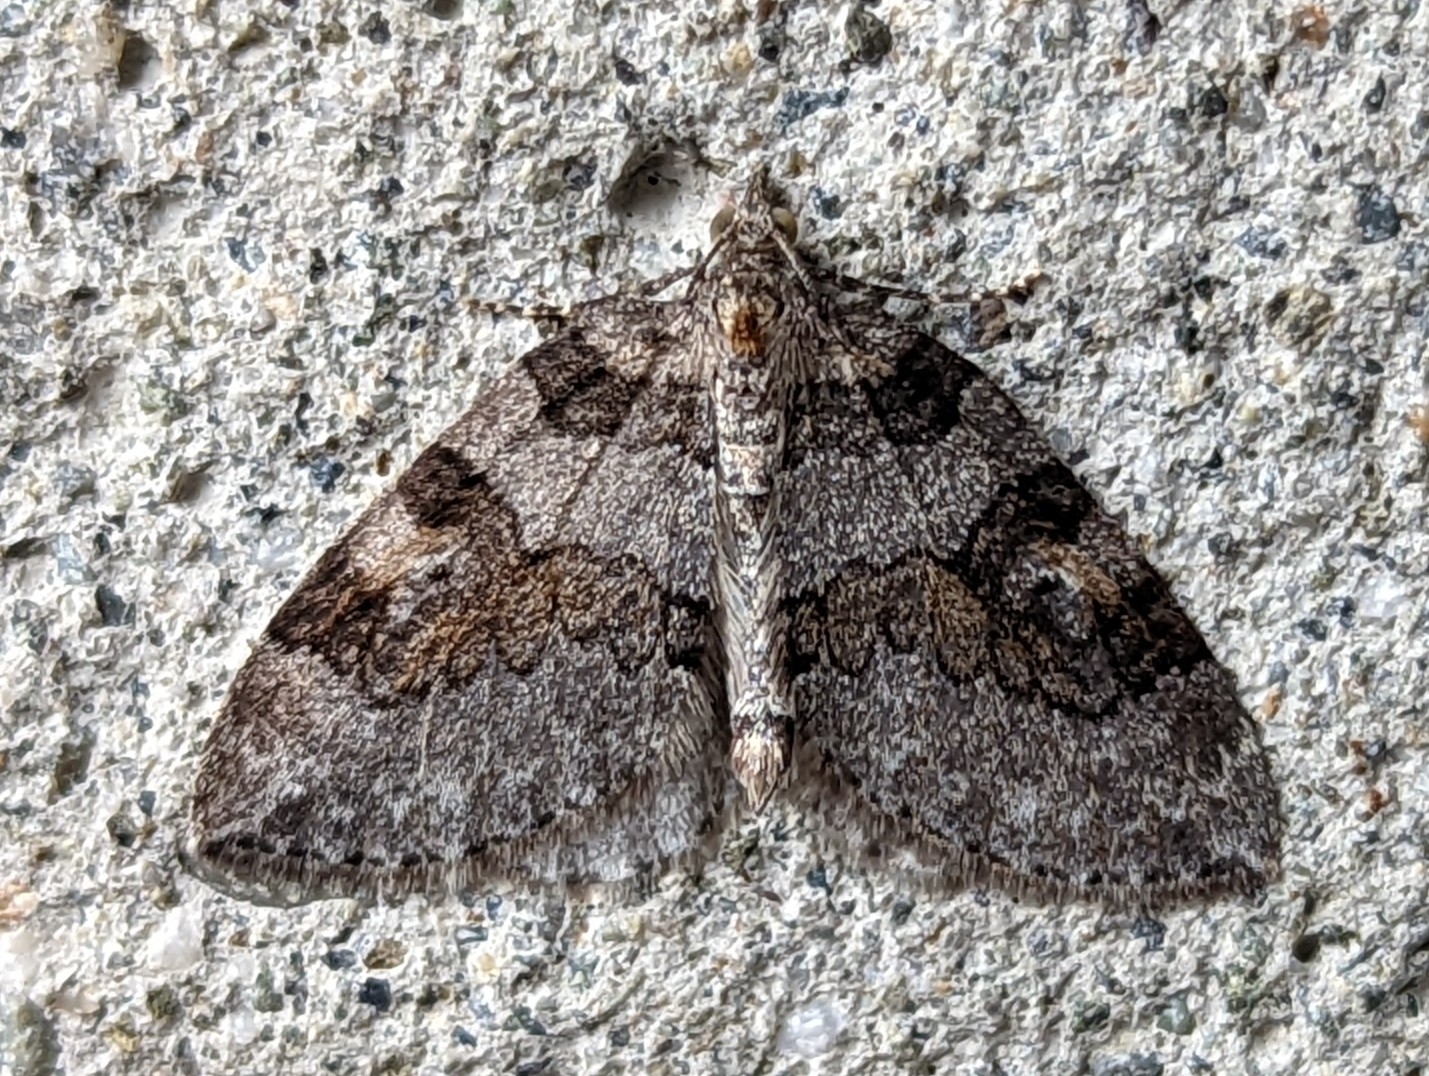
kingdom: Animalia
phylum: Arthropoda
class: Insecta
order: Lepidoptera
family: Geometridae
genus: Plemyria
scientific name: Plemyria georgii
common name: George's carpet moth
